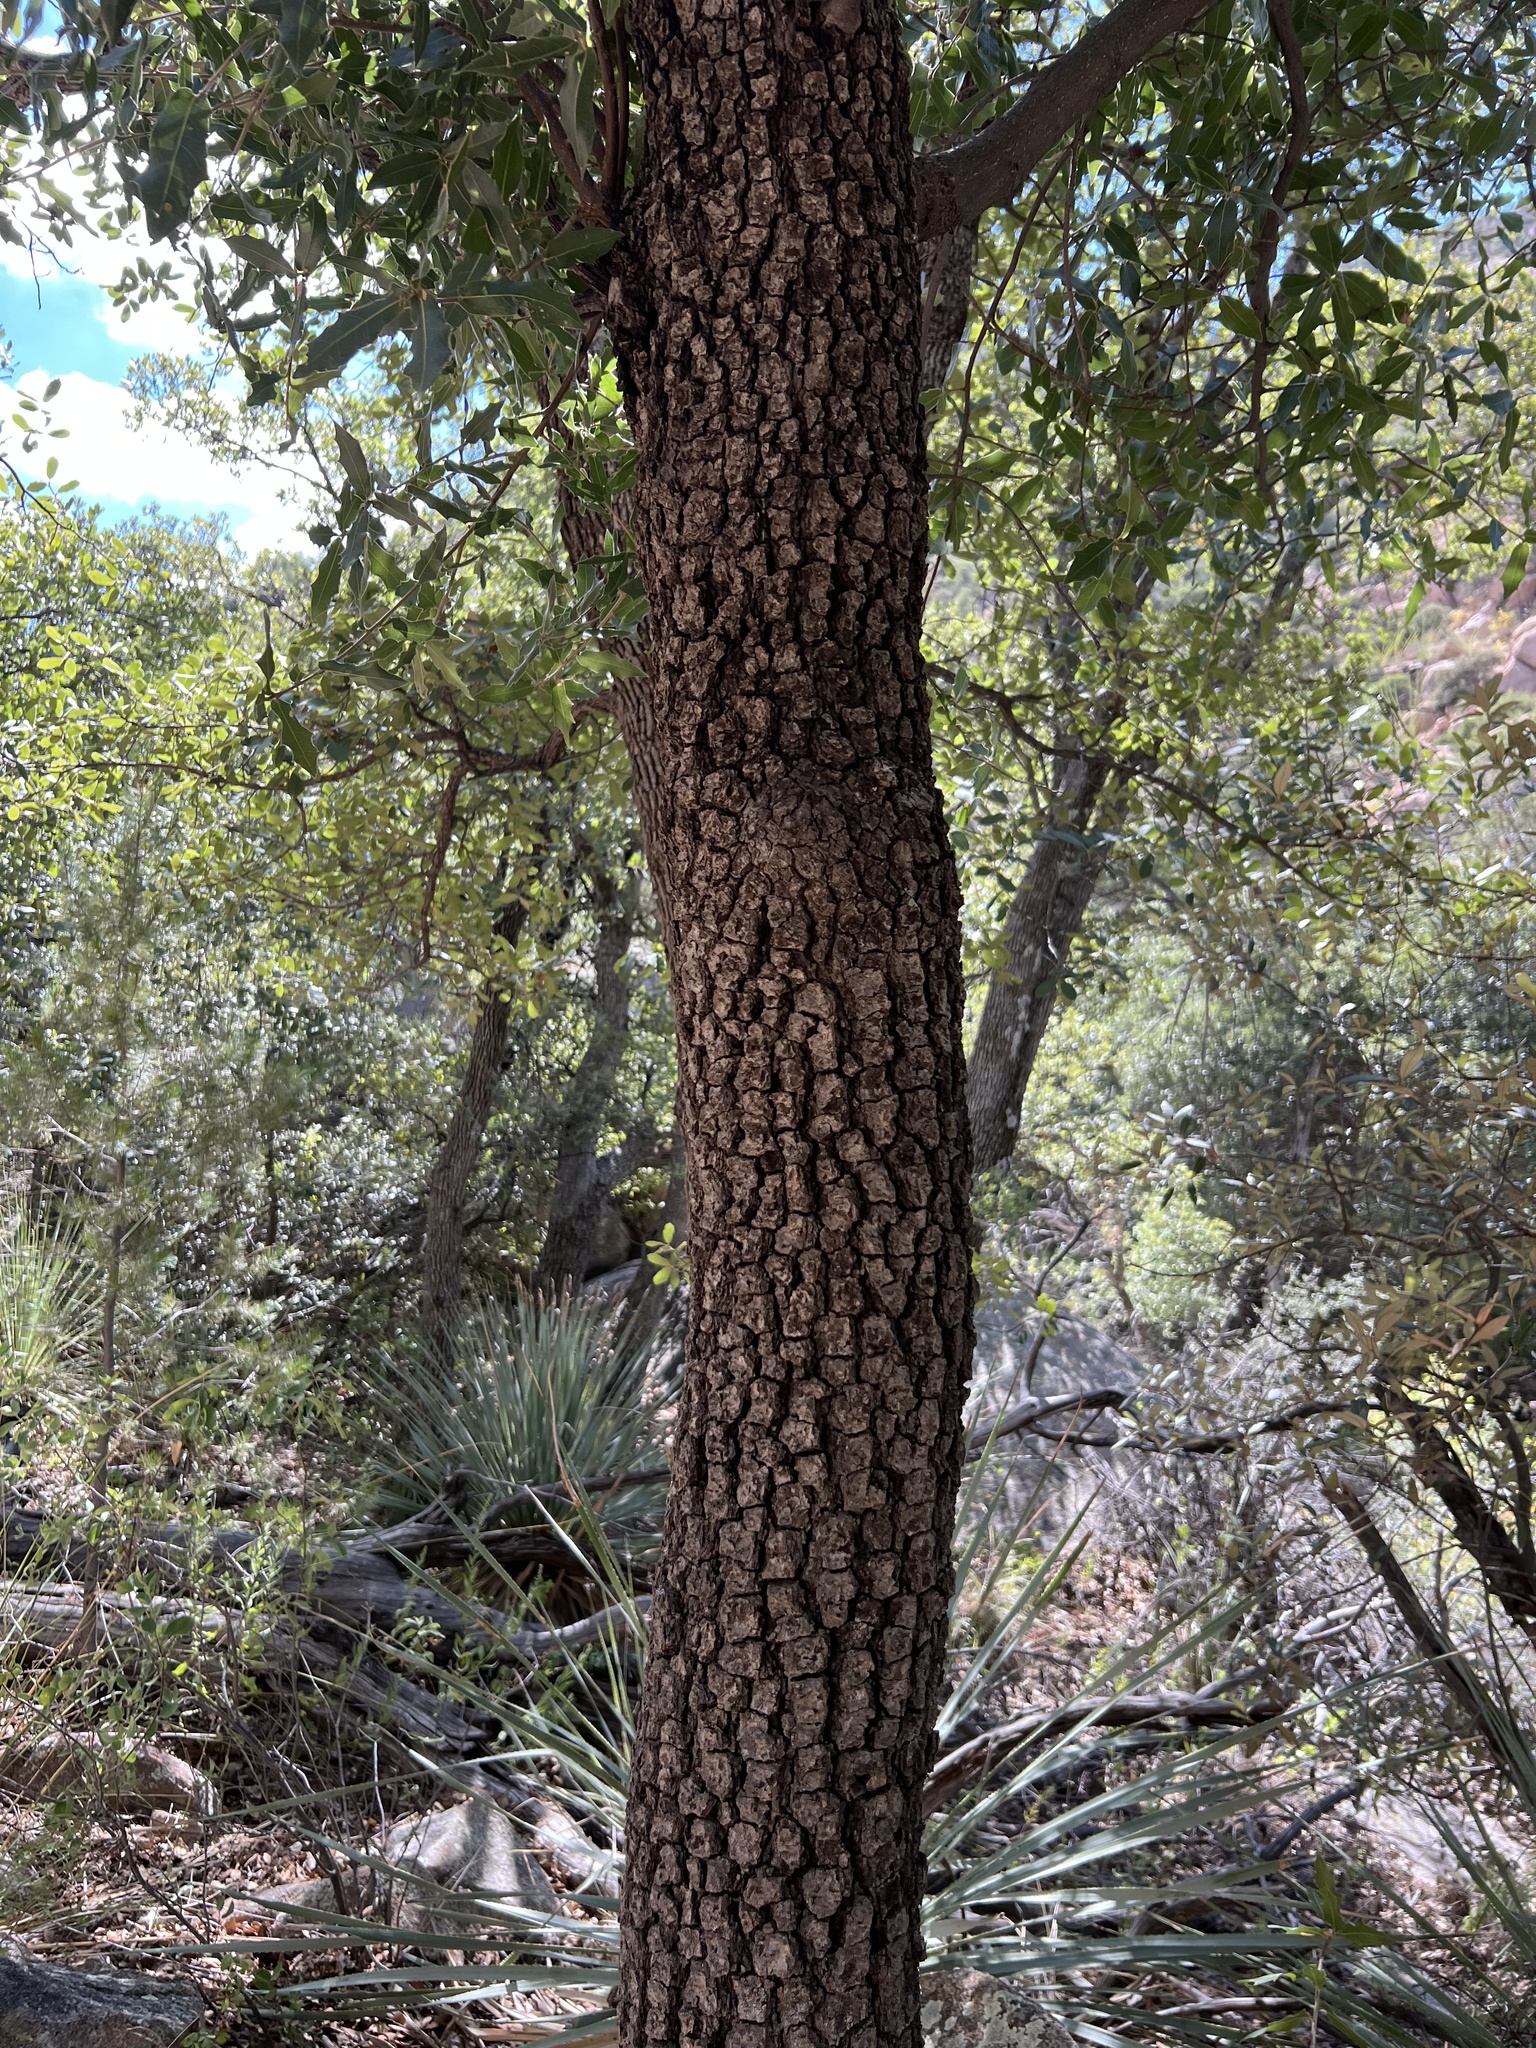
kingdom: Plantae
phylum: Tracheophyta
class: Magnoliopsida
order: Fagales
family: Fagaceae
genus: Quercus
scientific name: Quercus emoryi
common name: Emory oak
